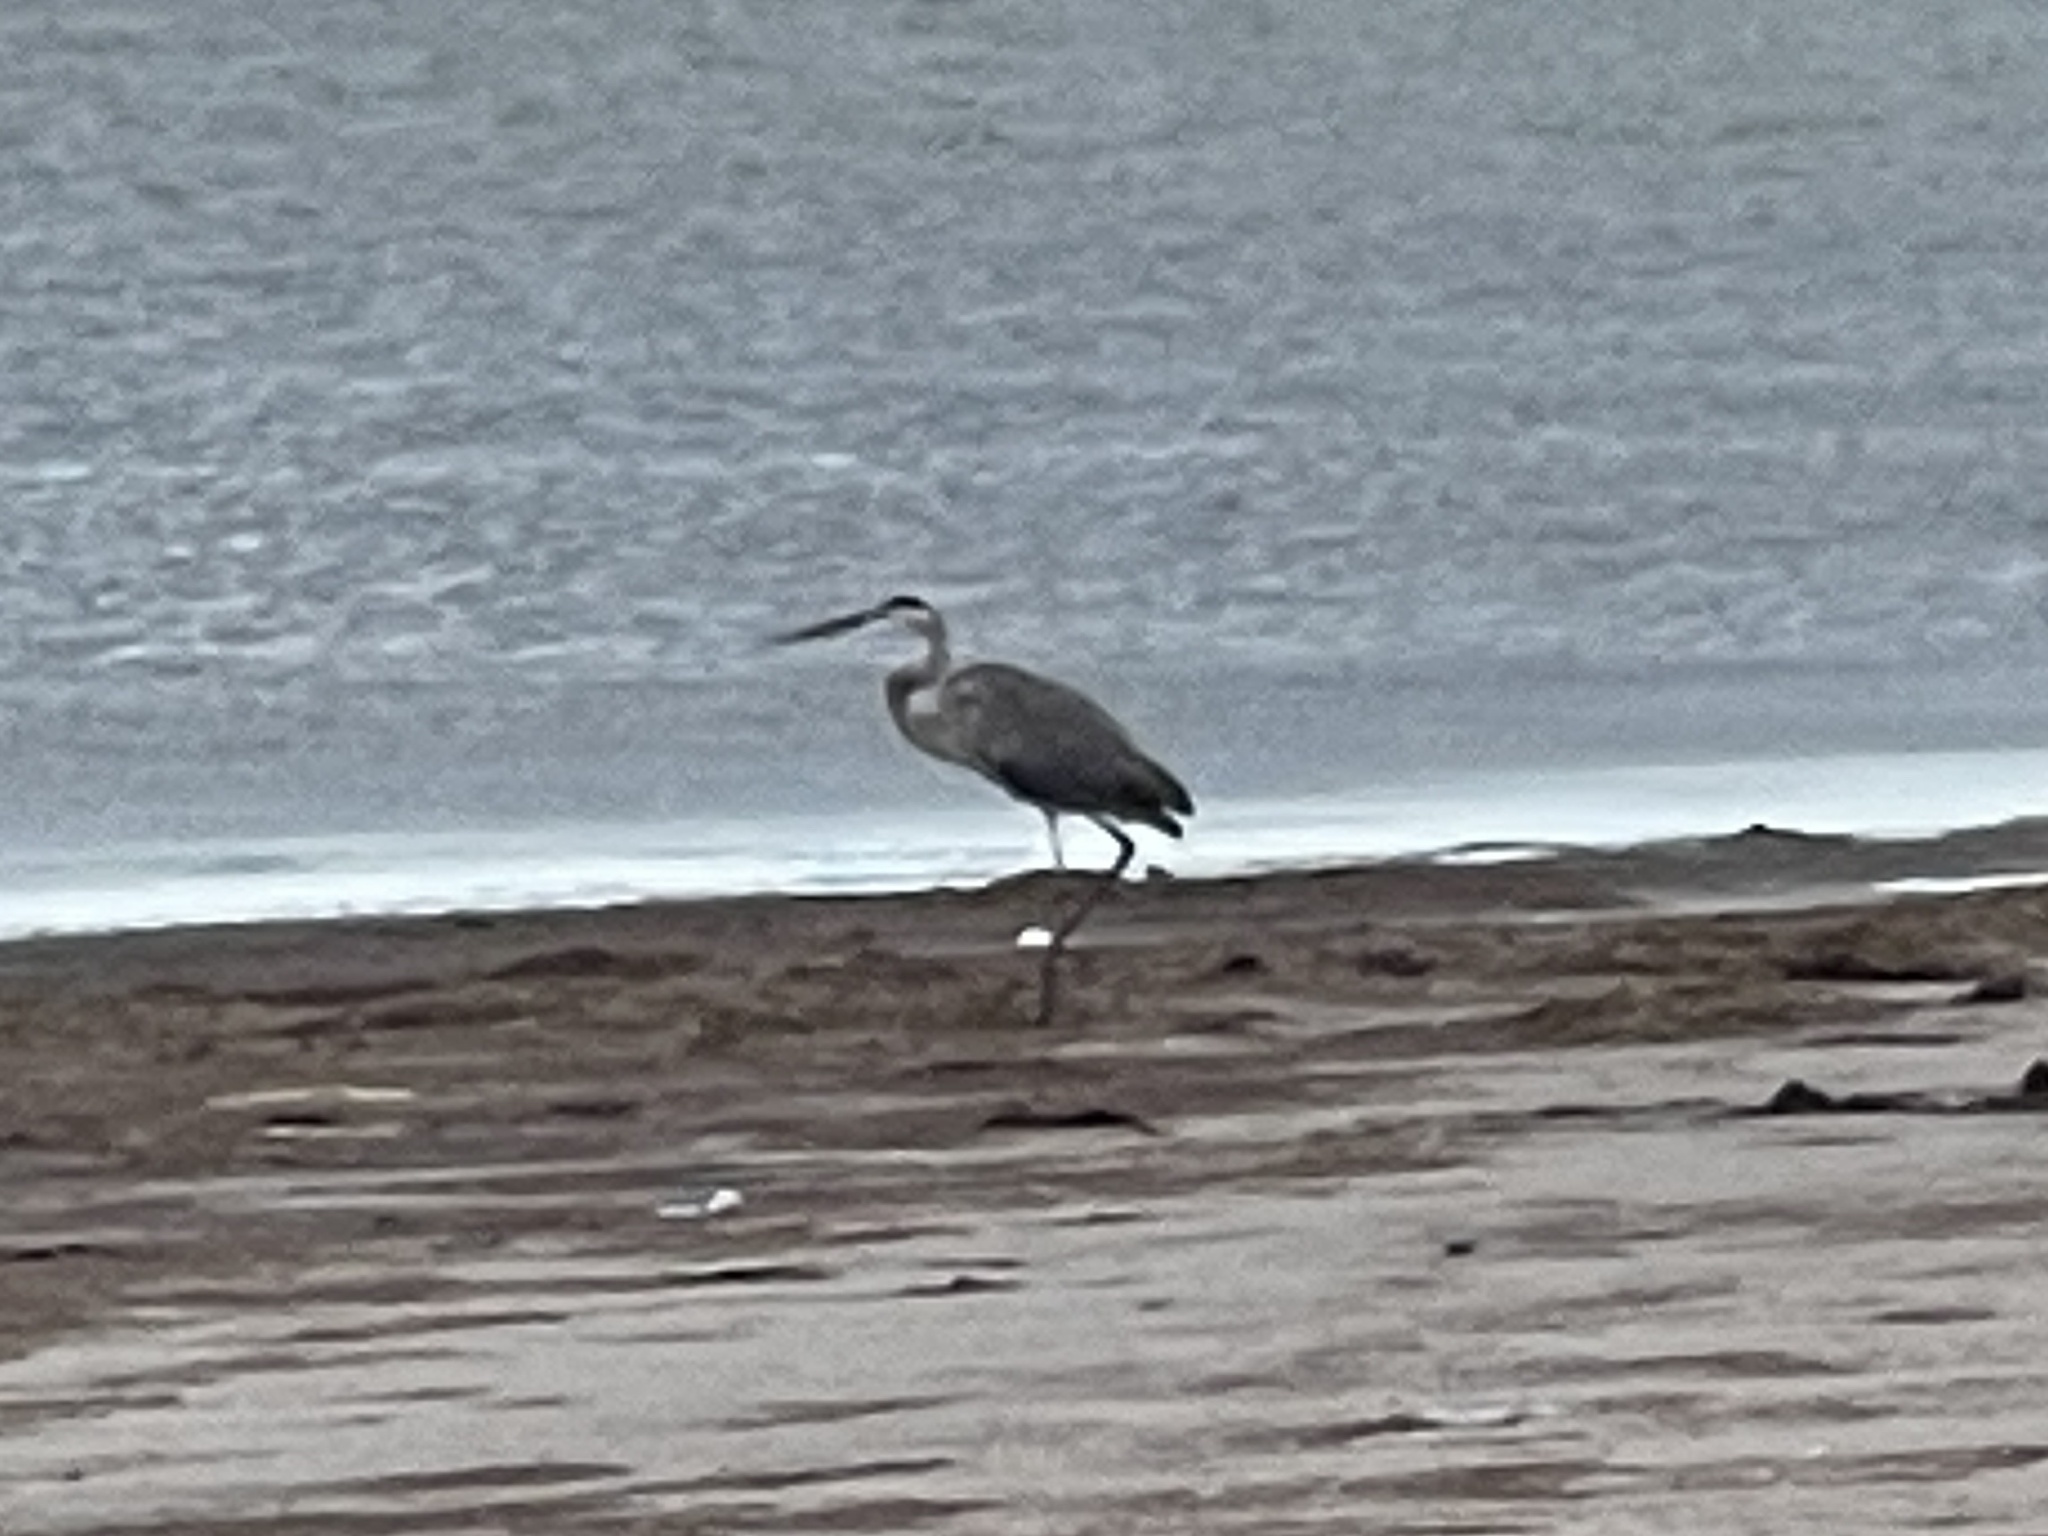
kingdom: Animalia
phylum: Chordata
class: Aves
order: Pelecaniformes
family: Ardeidae
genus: Ardea
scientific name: Ardea herodias
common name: Great blue heron
